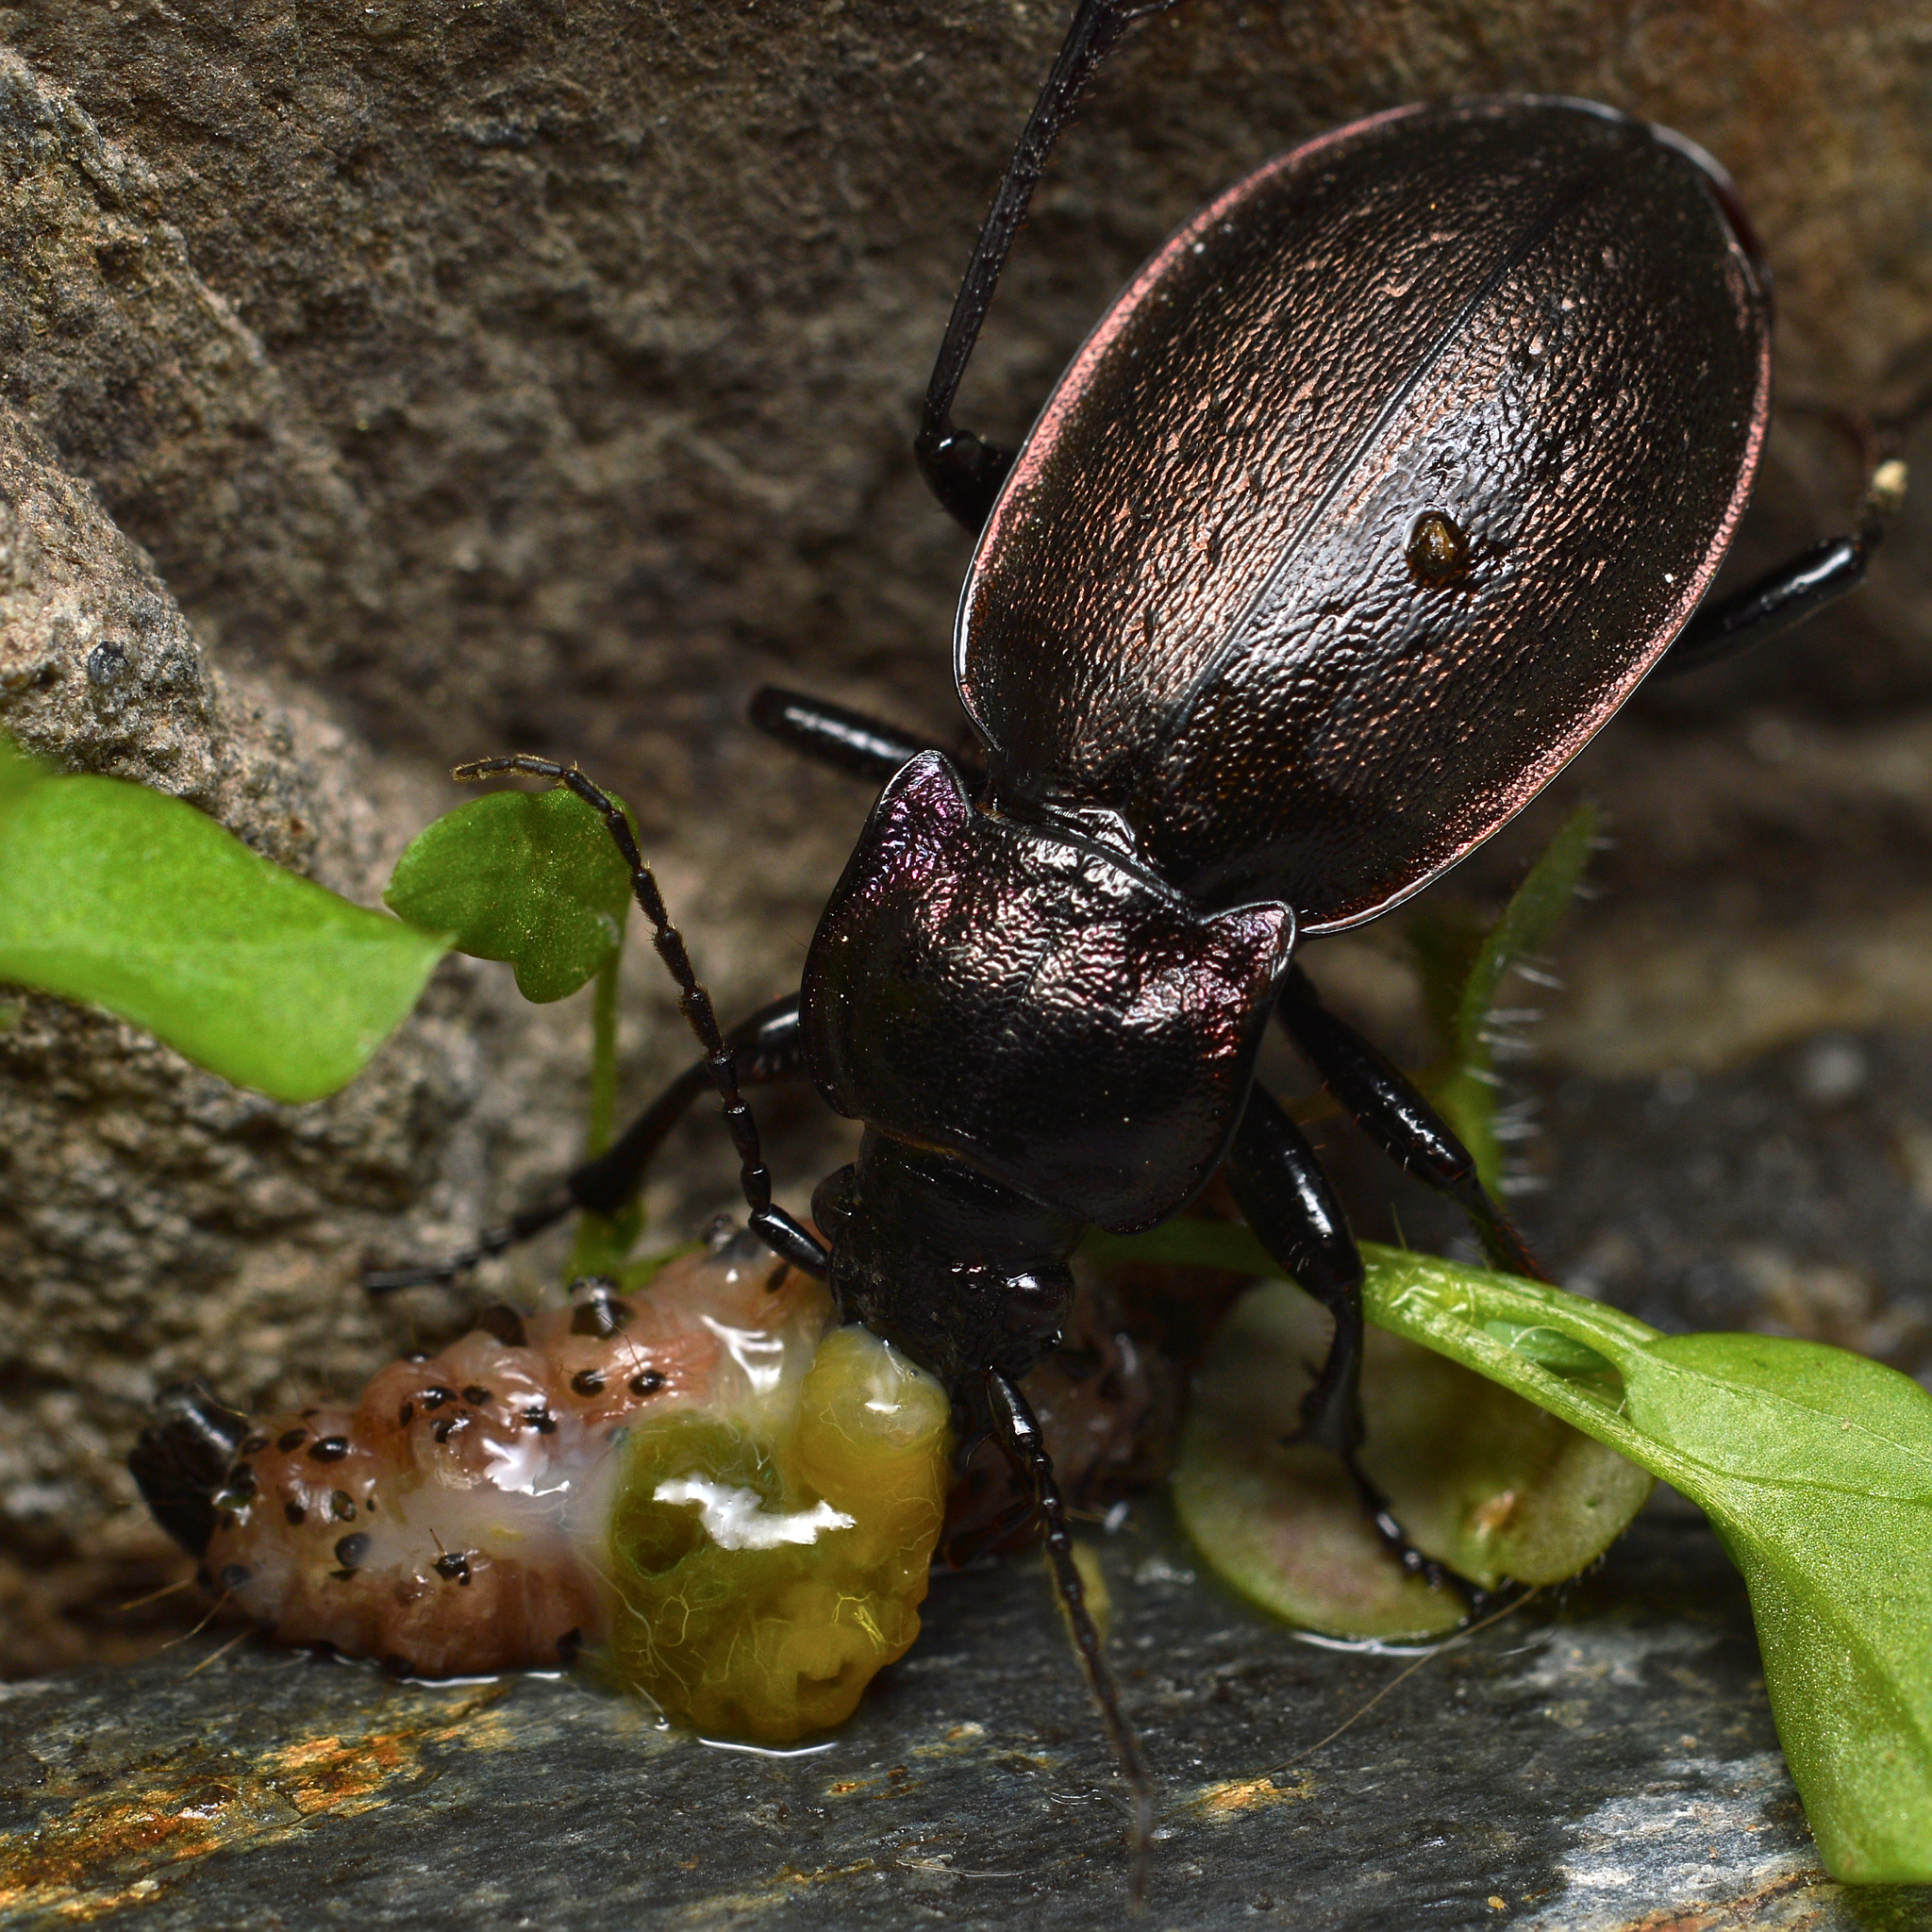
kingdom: Animalia
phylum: Arthropoda
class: Insecta
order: Coleoptera
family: Carabidae
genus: Carabus
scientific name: Carabus nemoralis
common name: European ground beetle
